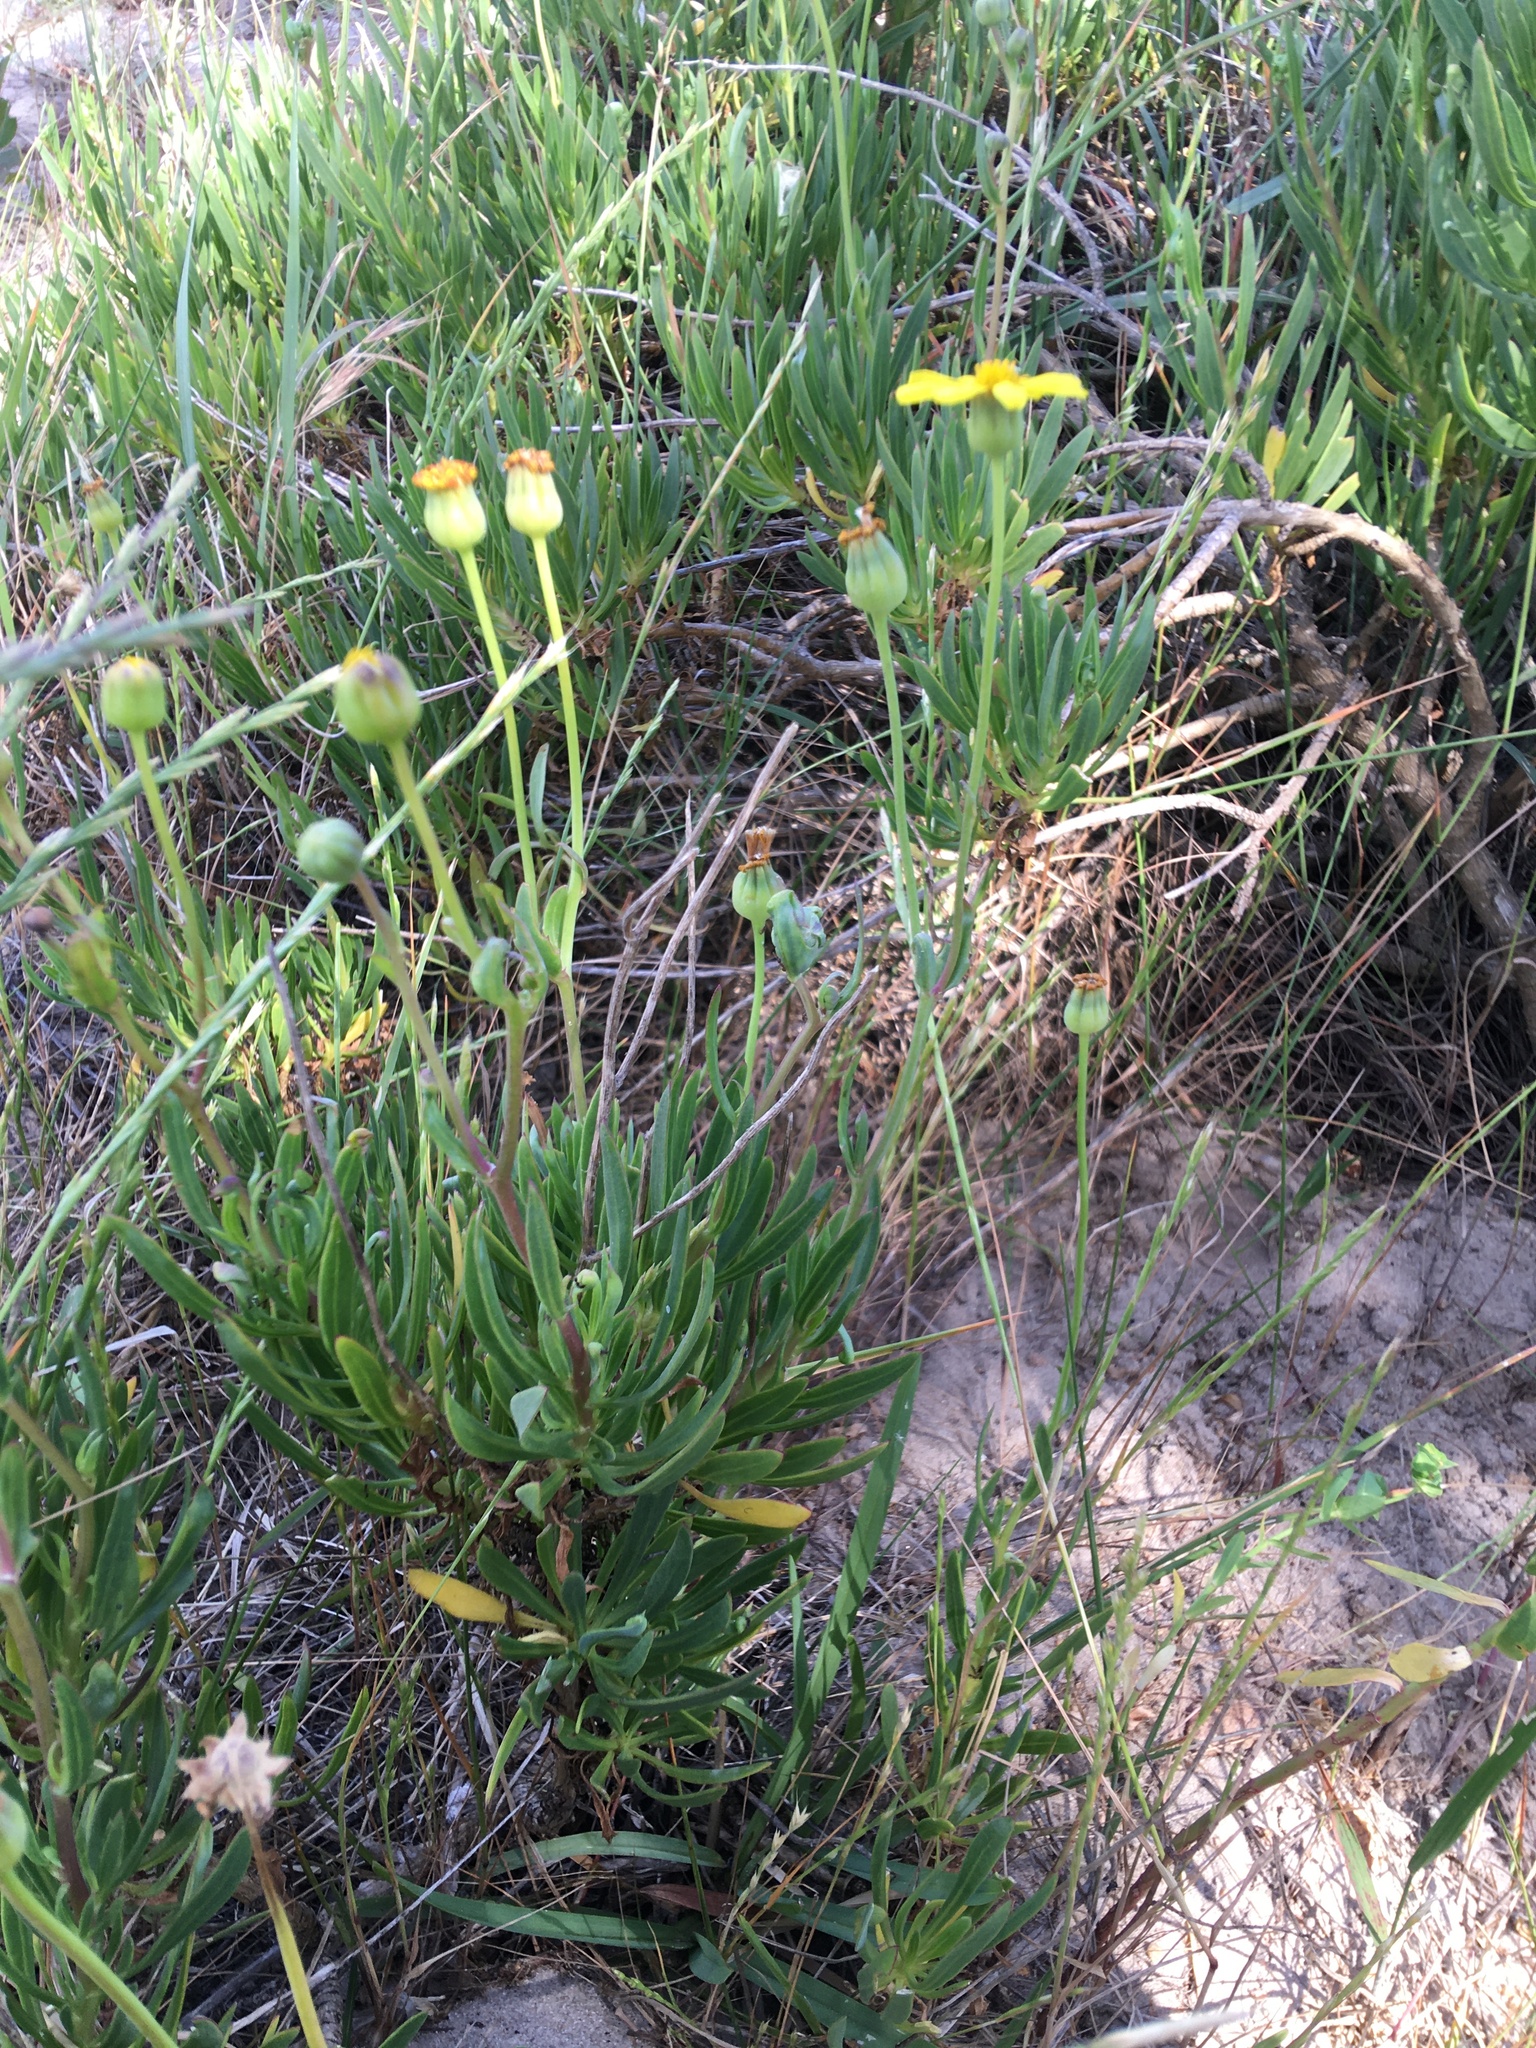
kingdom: Plantae
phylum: Tracheophyta
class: Magnoliopsida
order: Asterales
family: Asteraceae
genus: Othonna
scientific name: Othonna coronopifolia
